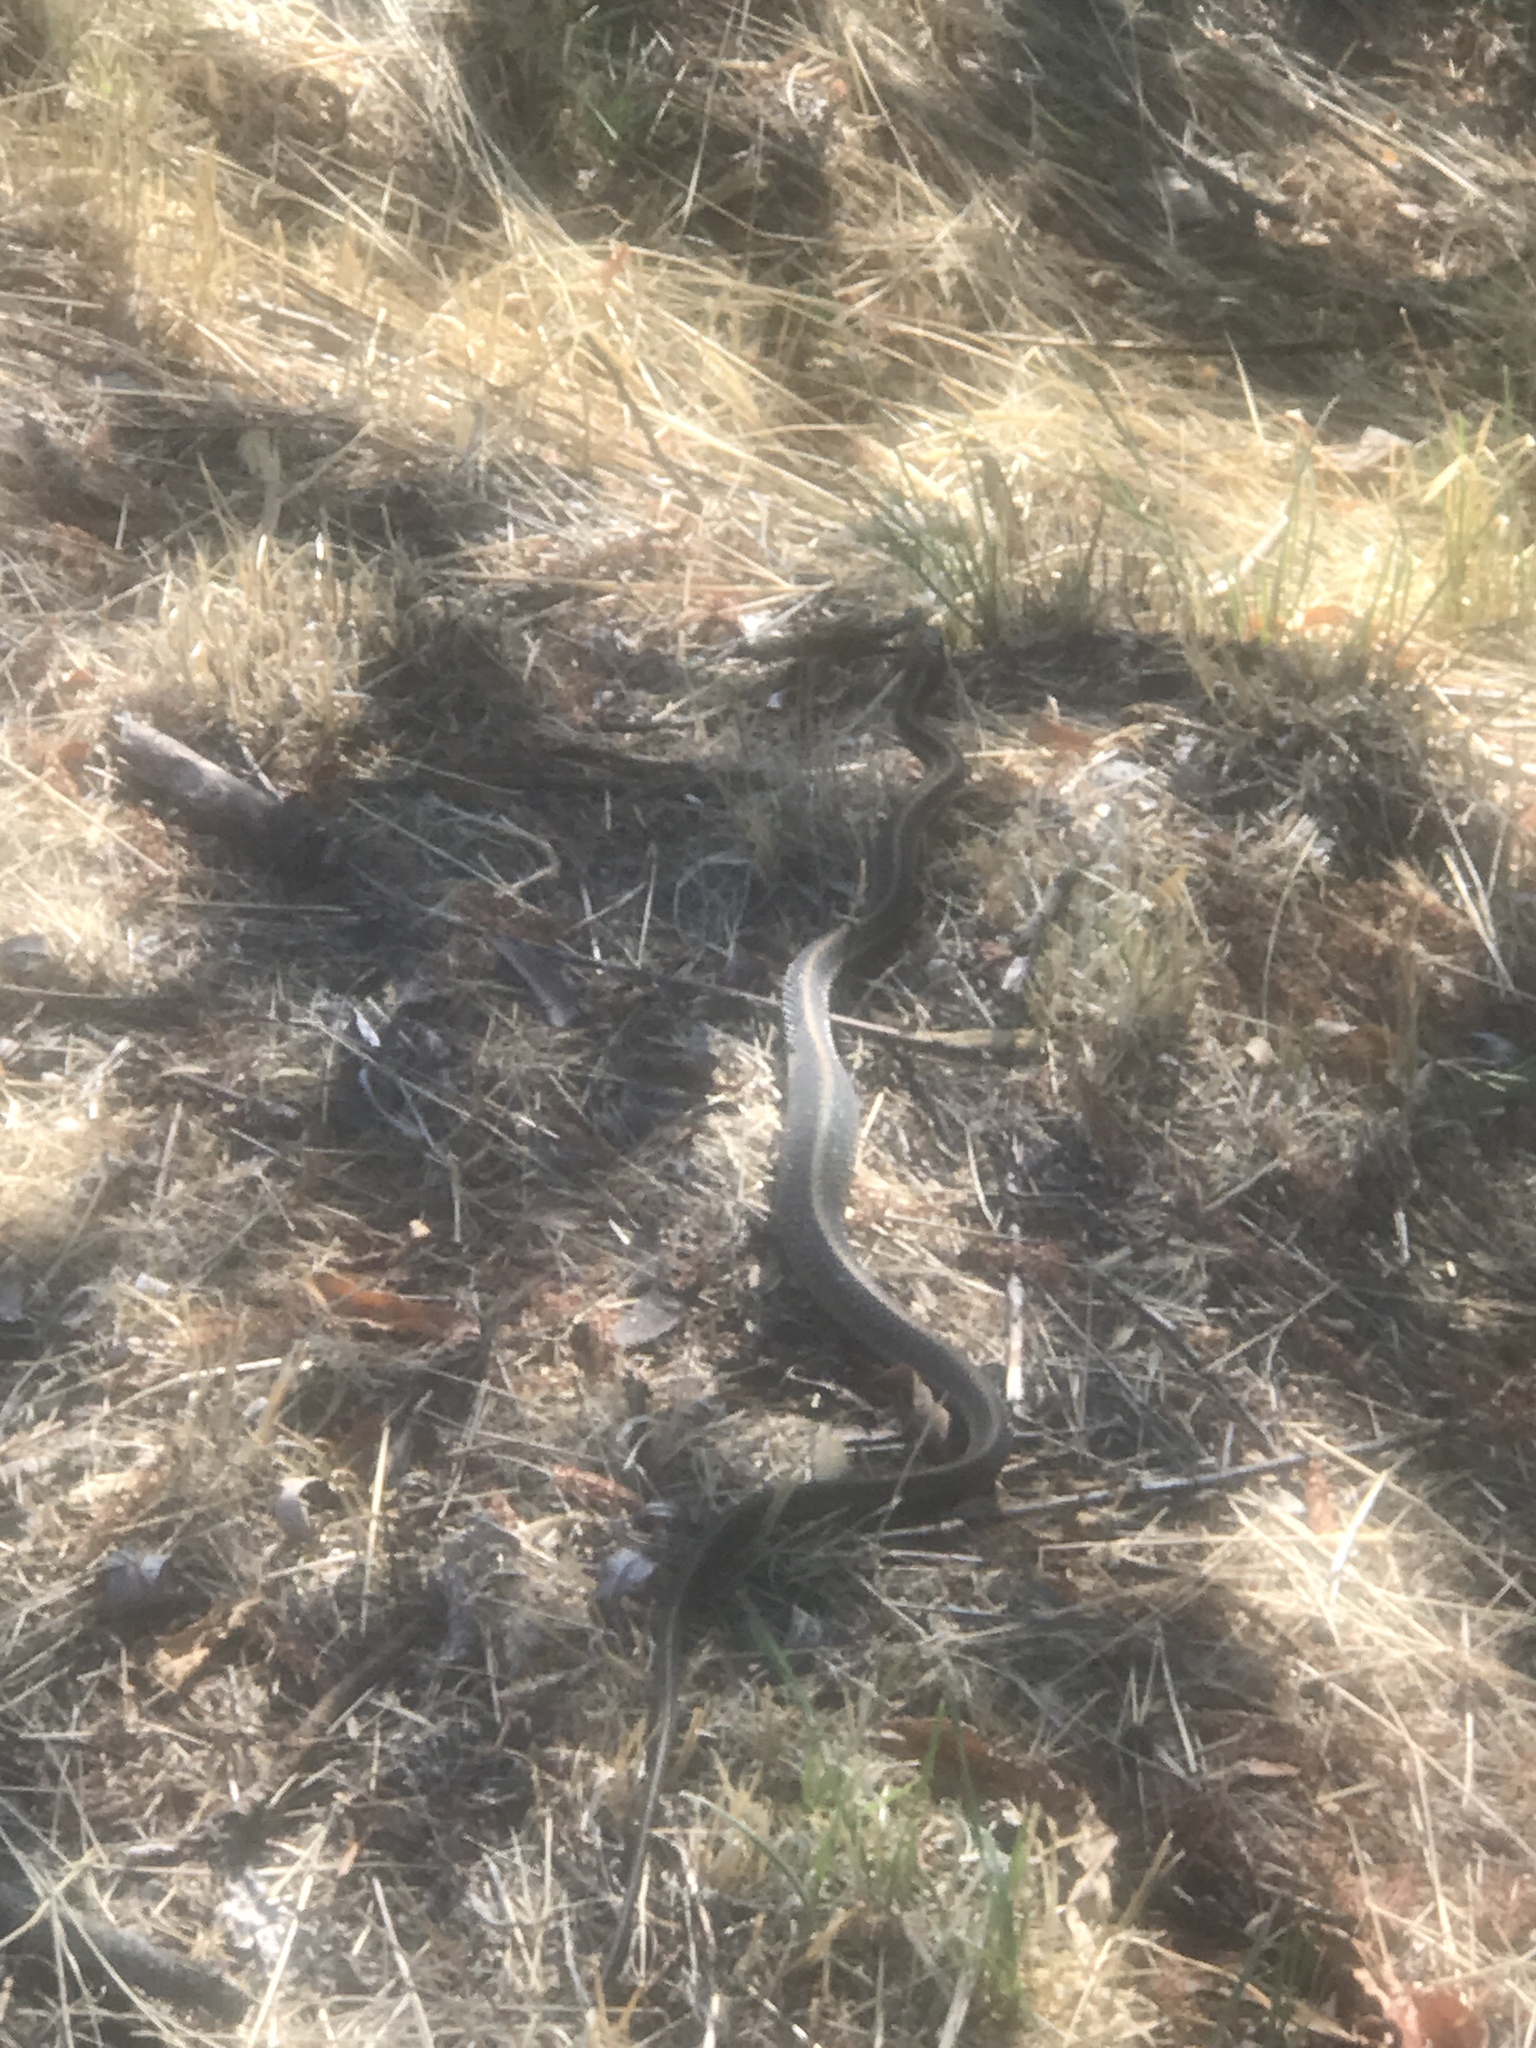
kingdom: Animalia
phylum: Chordata
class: Squamata
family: Colubridae
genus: Thamnophis
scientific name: Thamnophis elegans
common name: Western terrestrial garter snake
